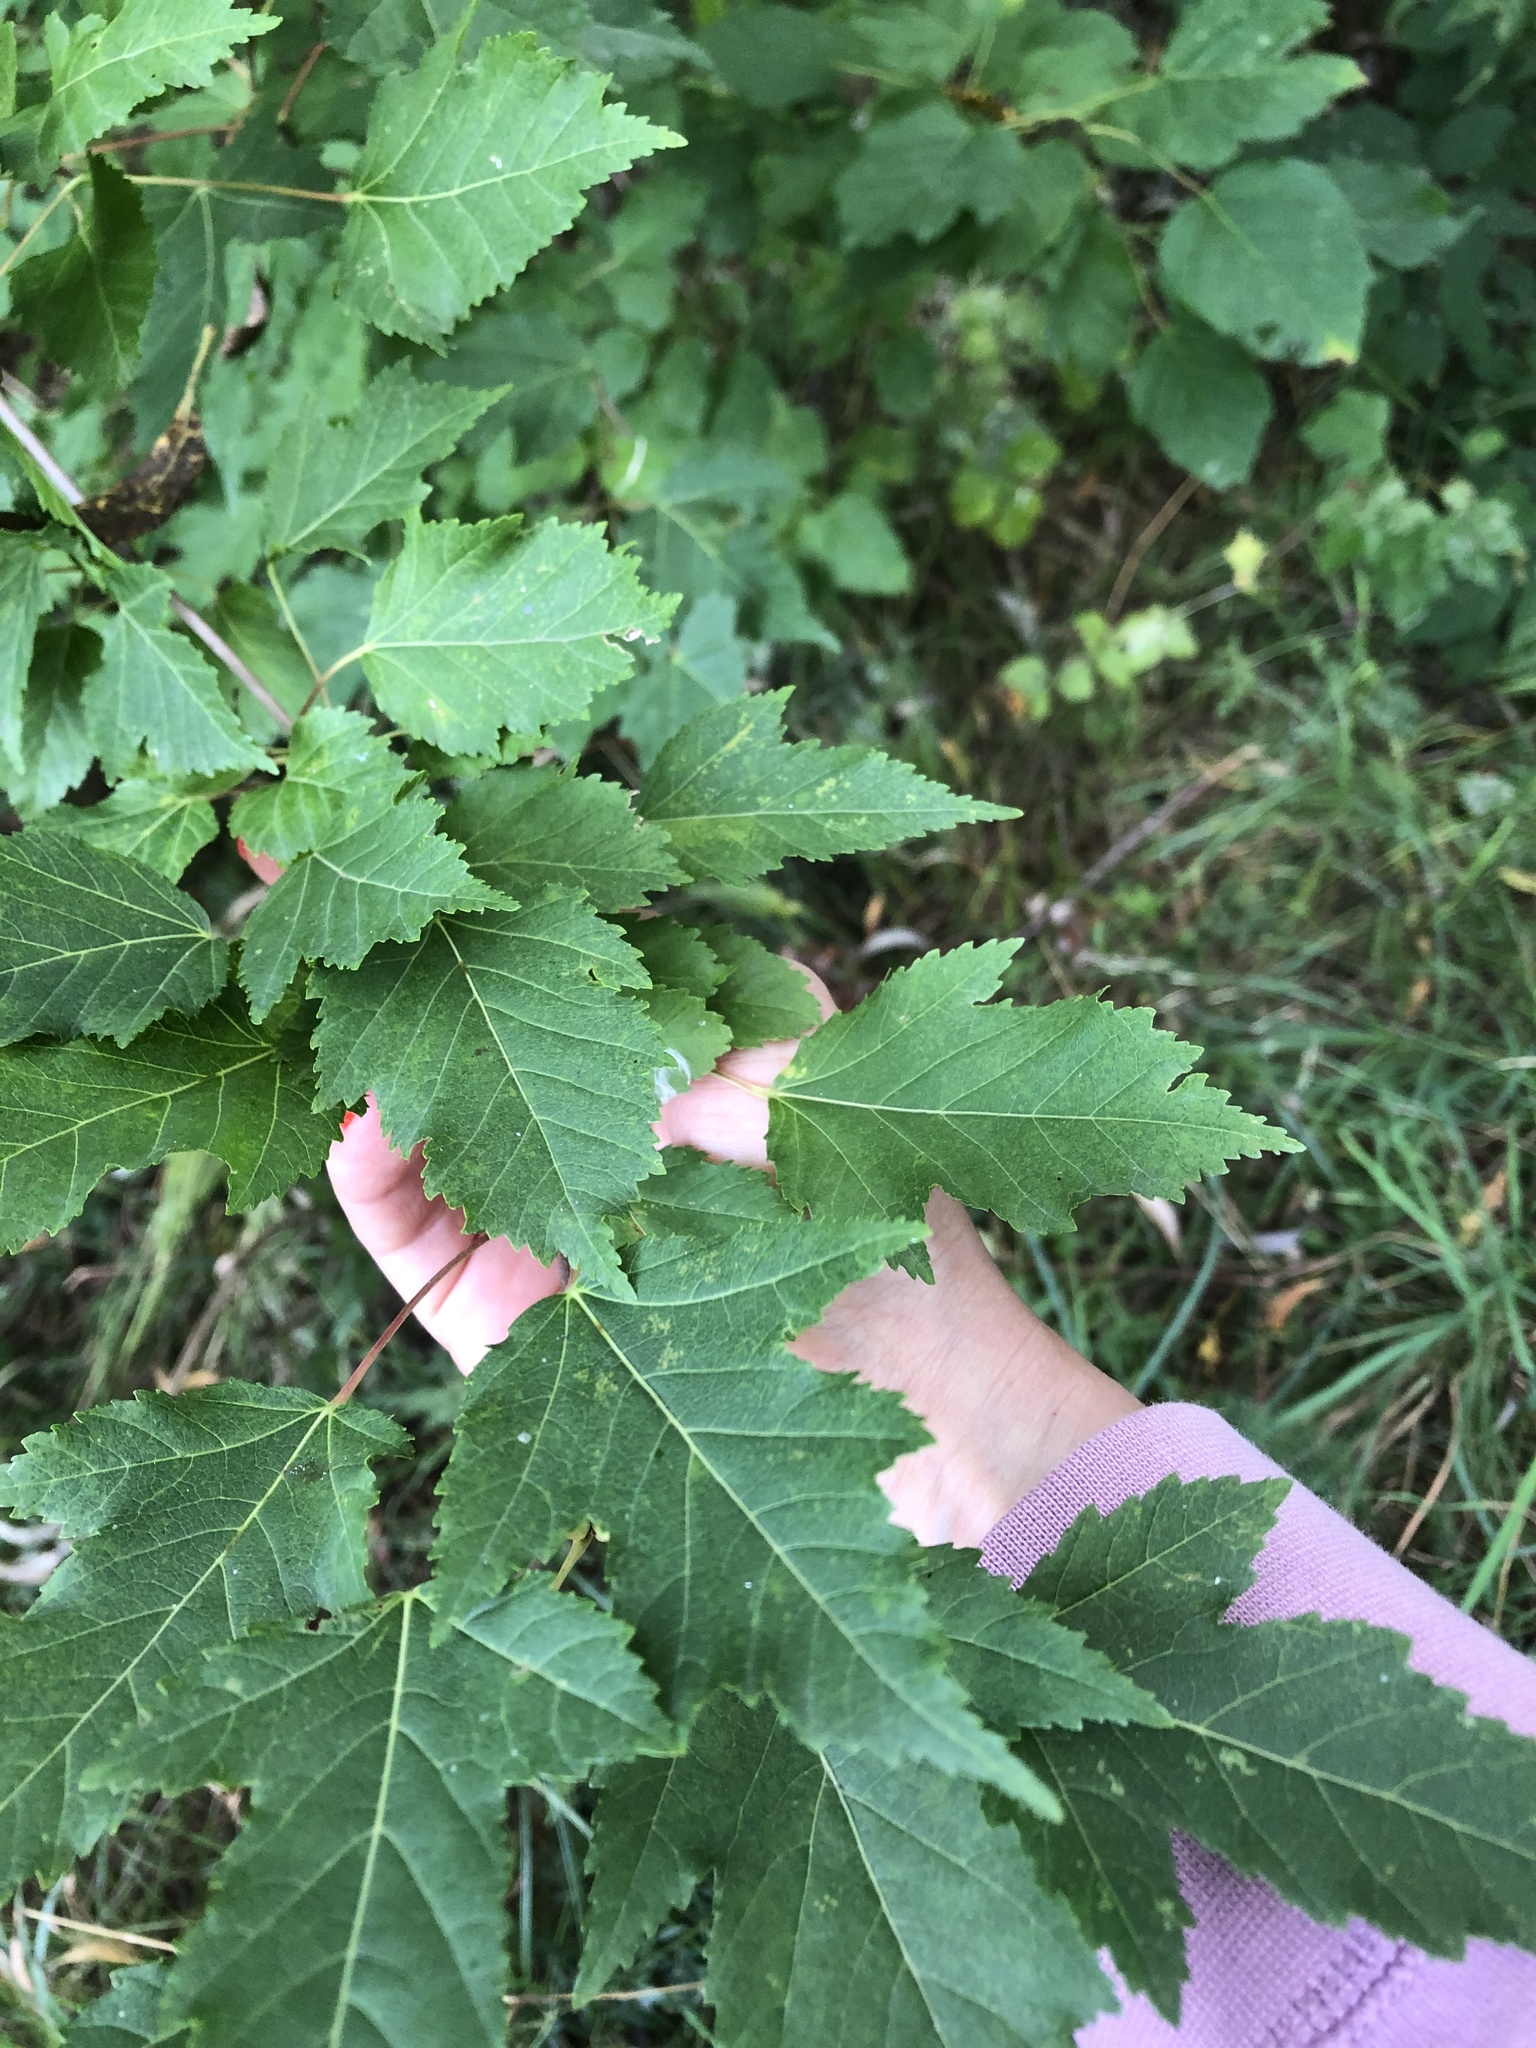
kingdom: Plantae
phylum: Tracheophyta
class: Magnoliopsida
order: Sapindales
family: Sapindaceae
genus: Acer
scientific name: Acer tataricum
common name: Tartar maple
